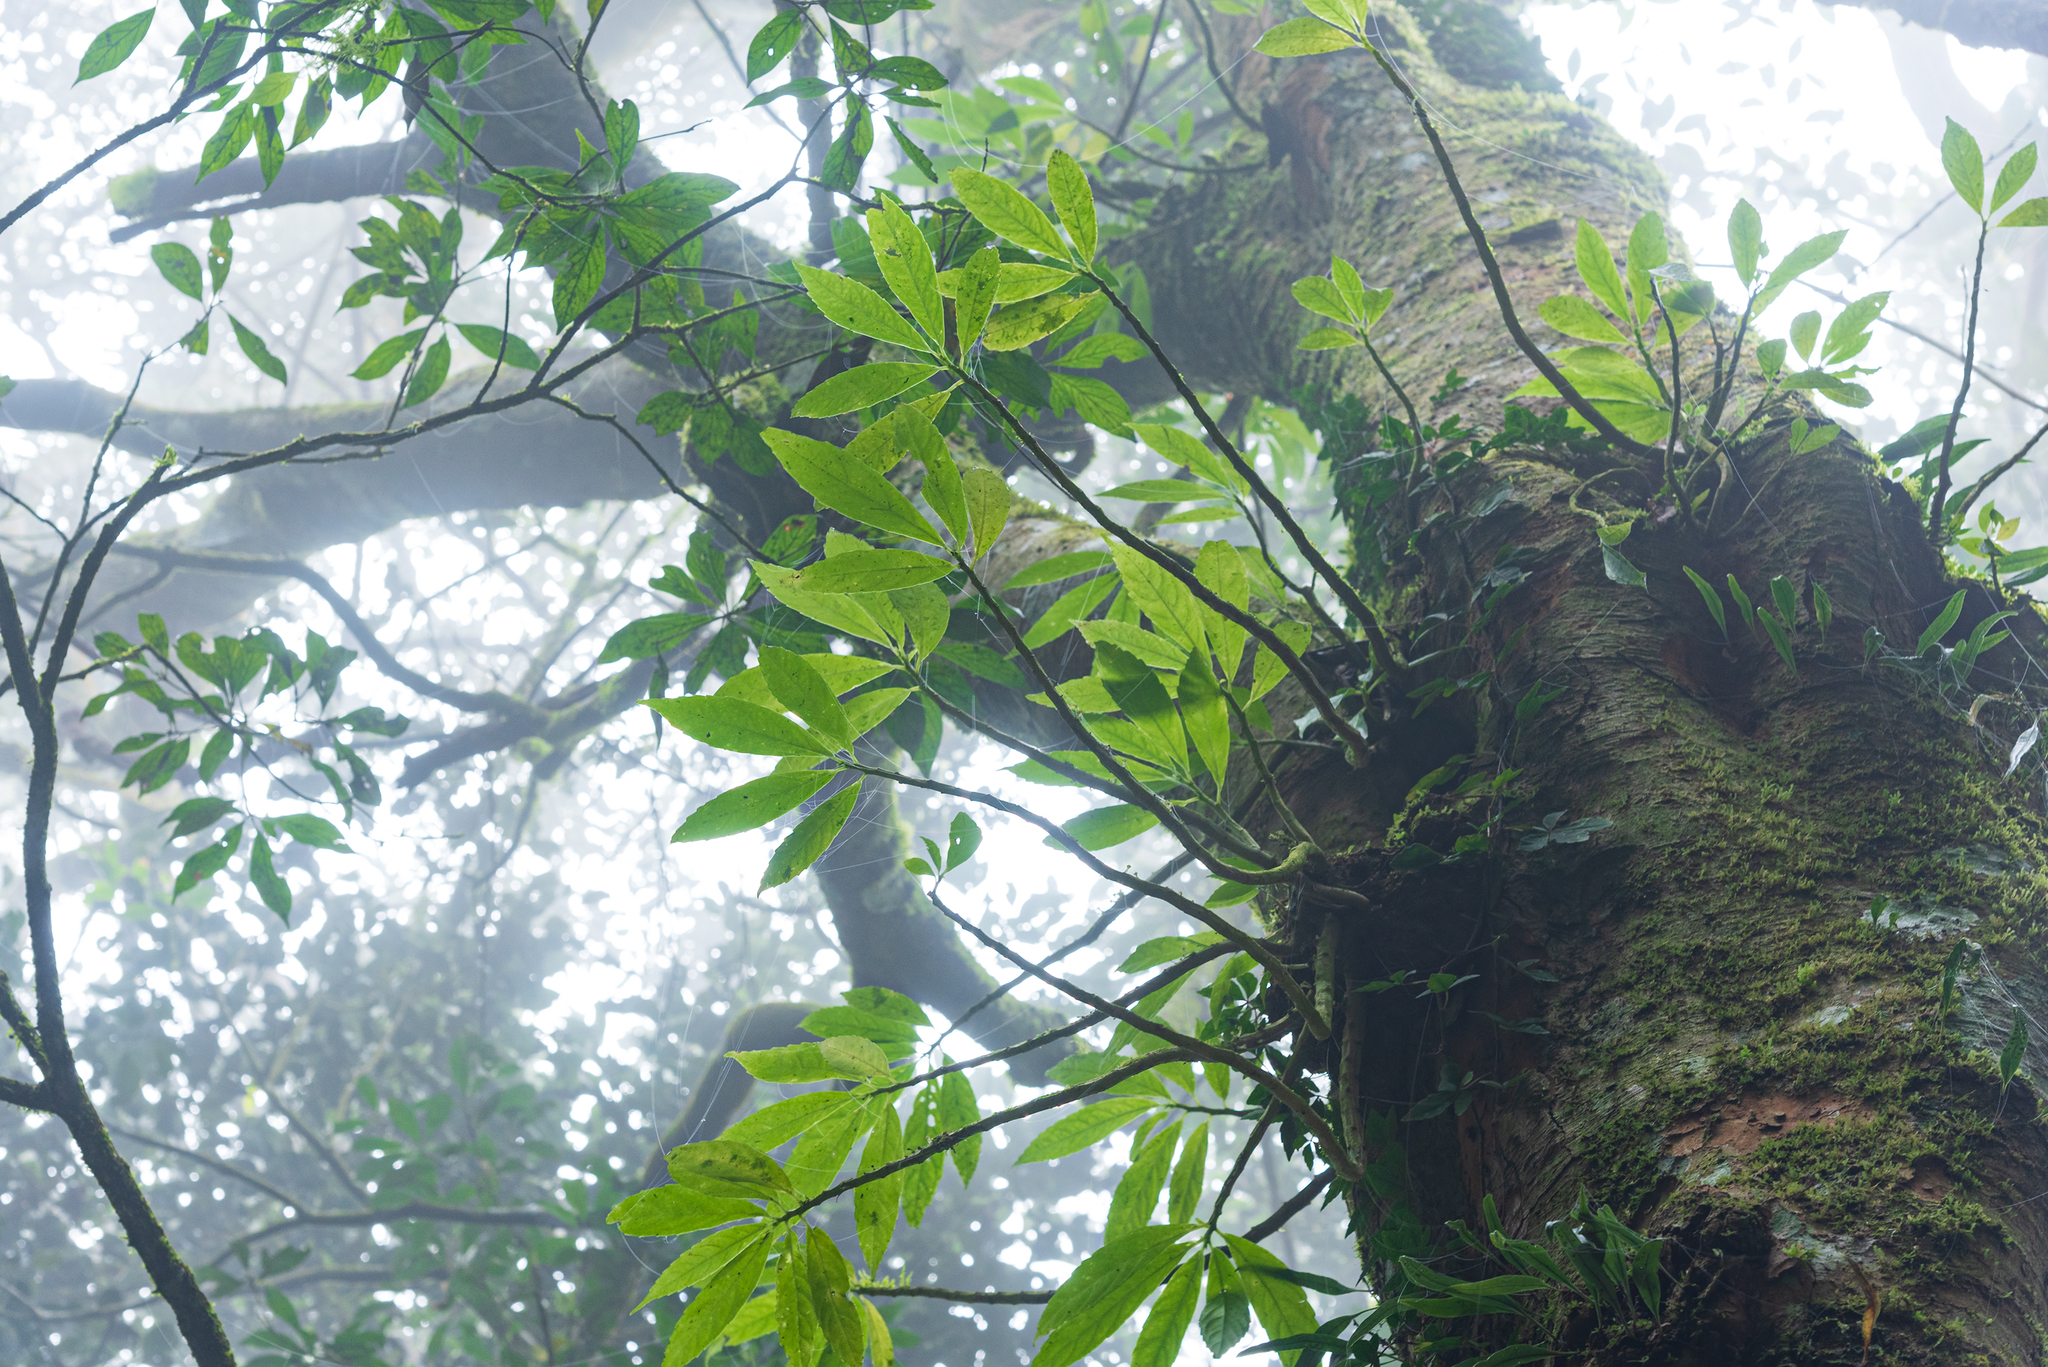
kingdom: Plantae
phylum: Tracheophyta
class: Magnoliopsida
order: Rosales
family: Urticaceae
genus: Procris
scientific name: Procris
